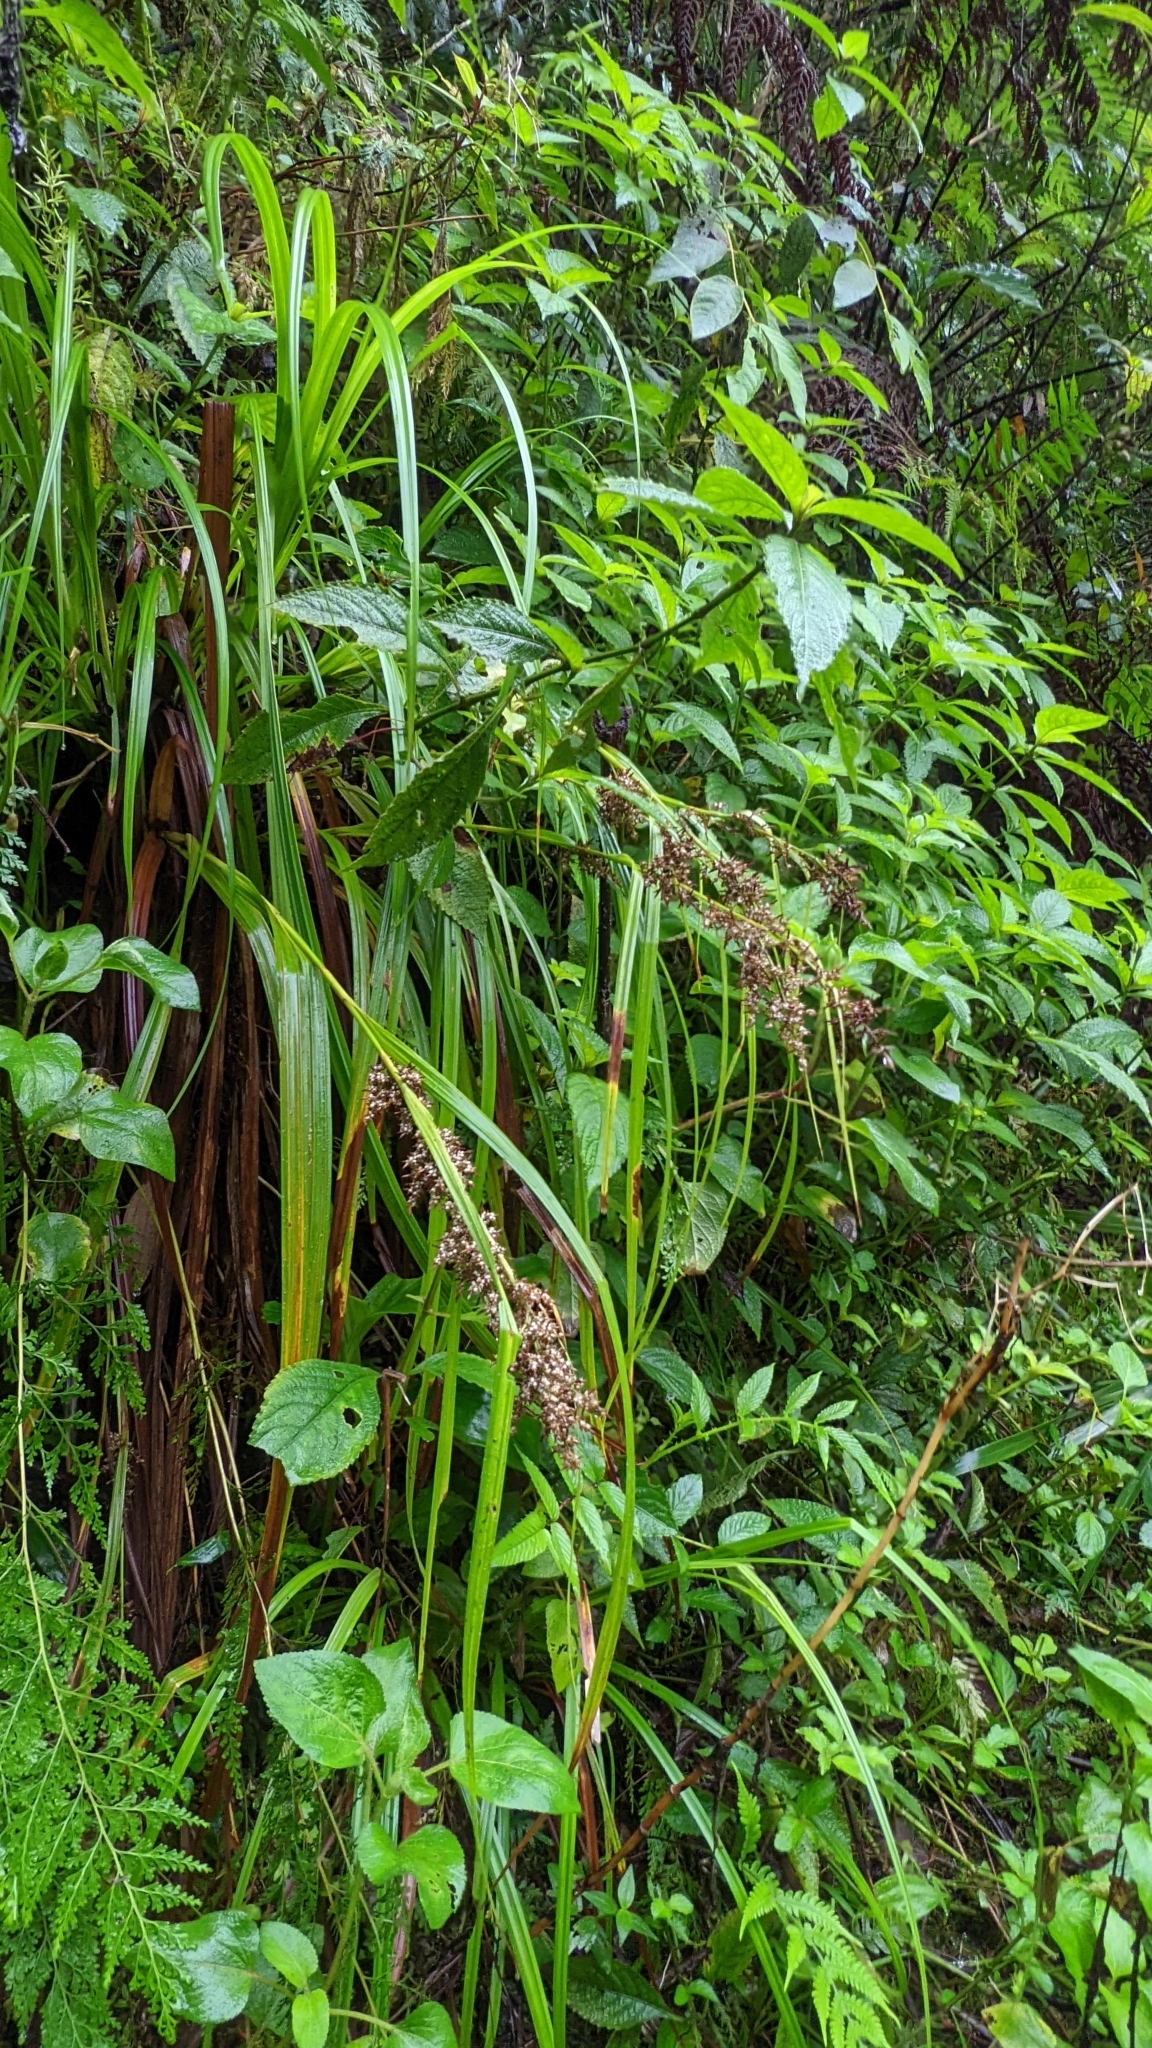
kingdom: Plantae
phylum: Tracheophyta
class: Liliopsida
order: Poales
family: Cyperaceae
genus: Carex
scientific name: Carex cruciata
